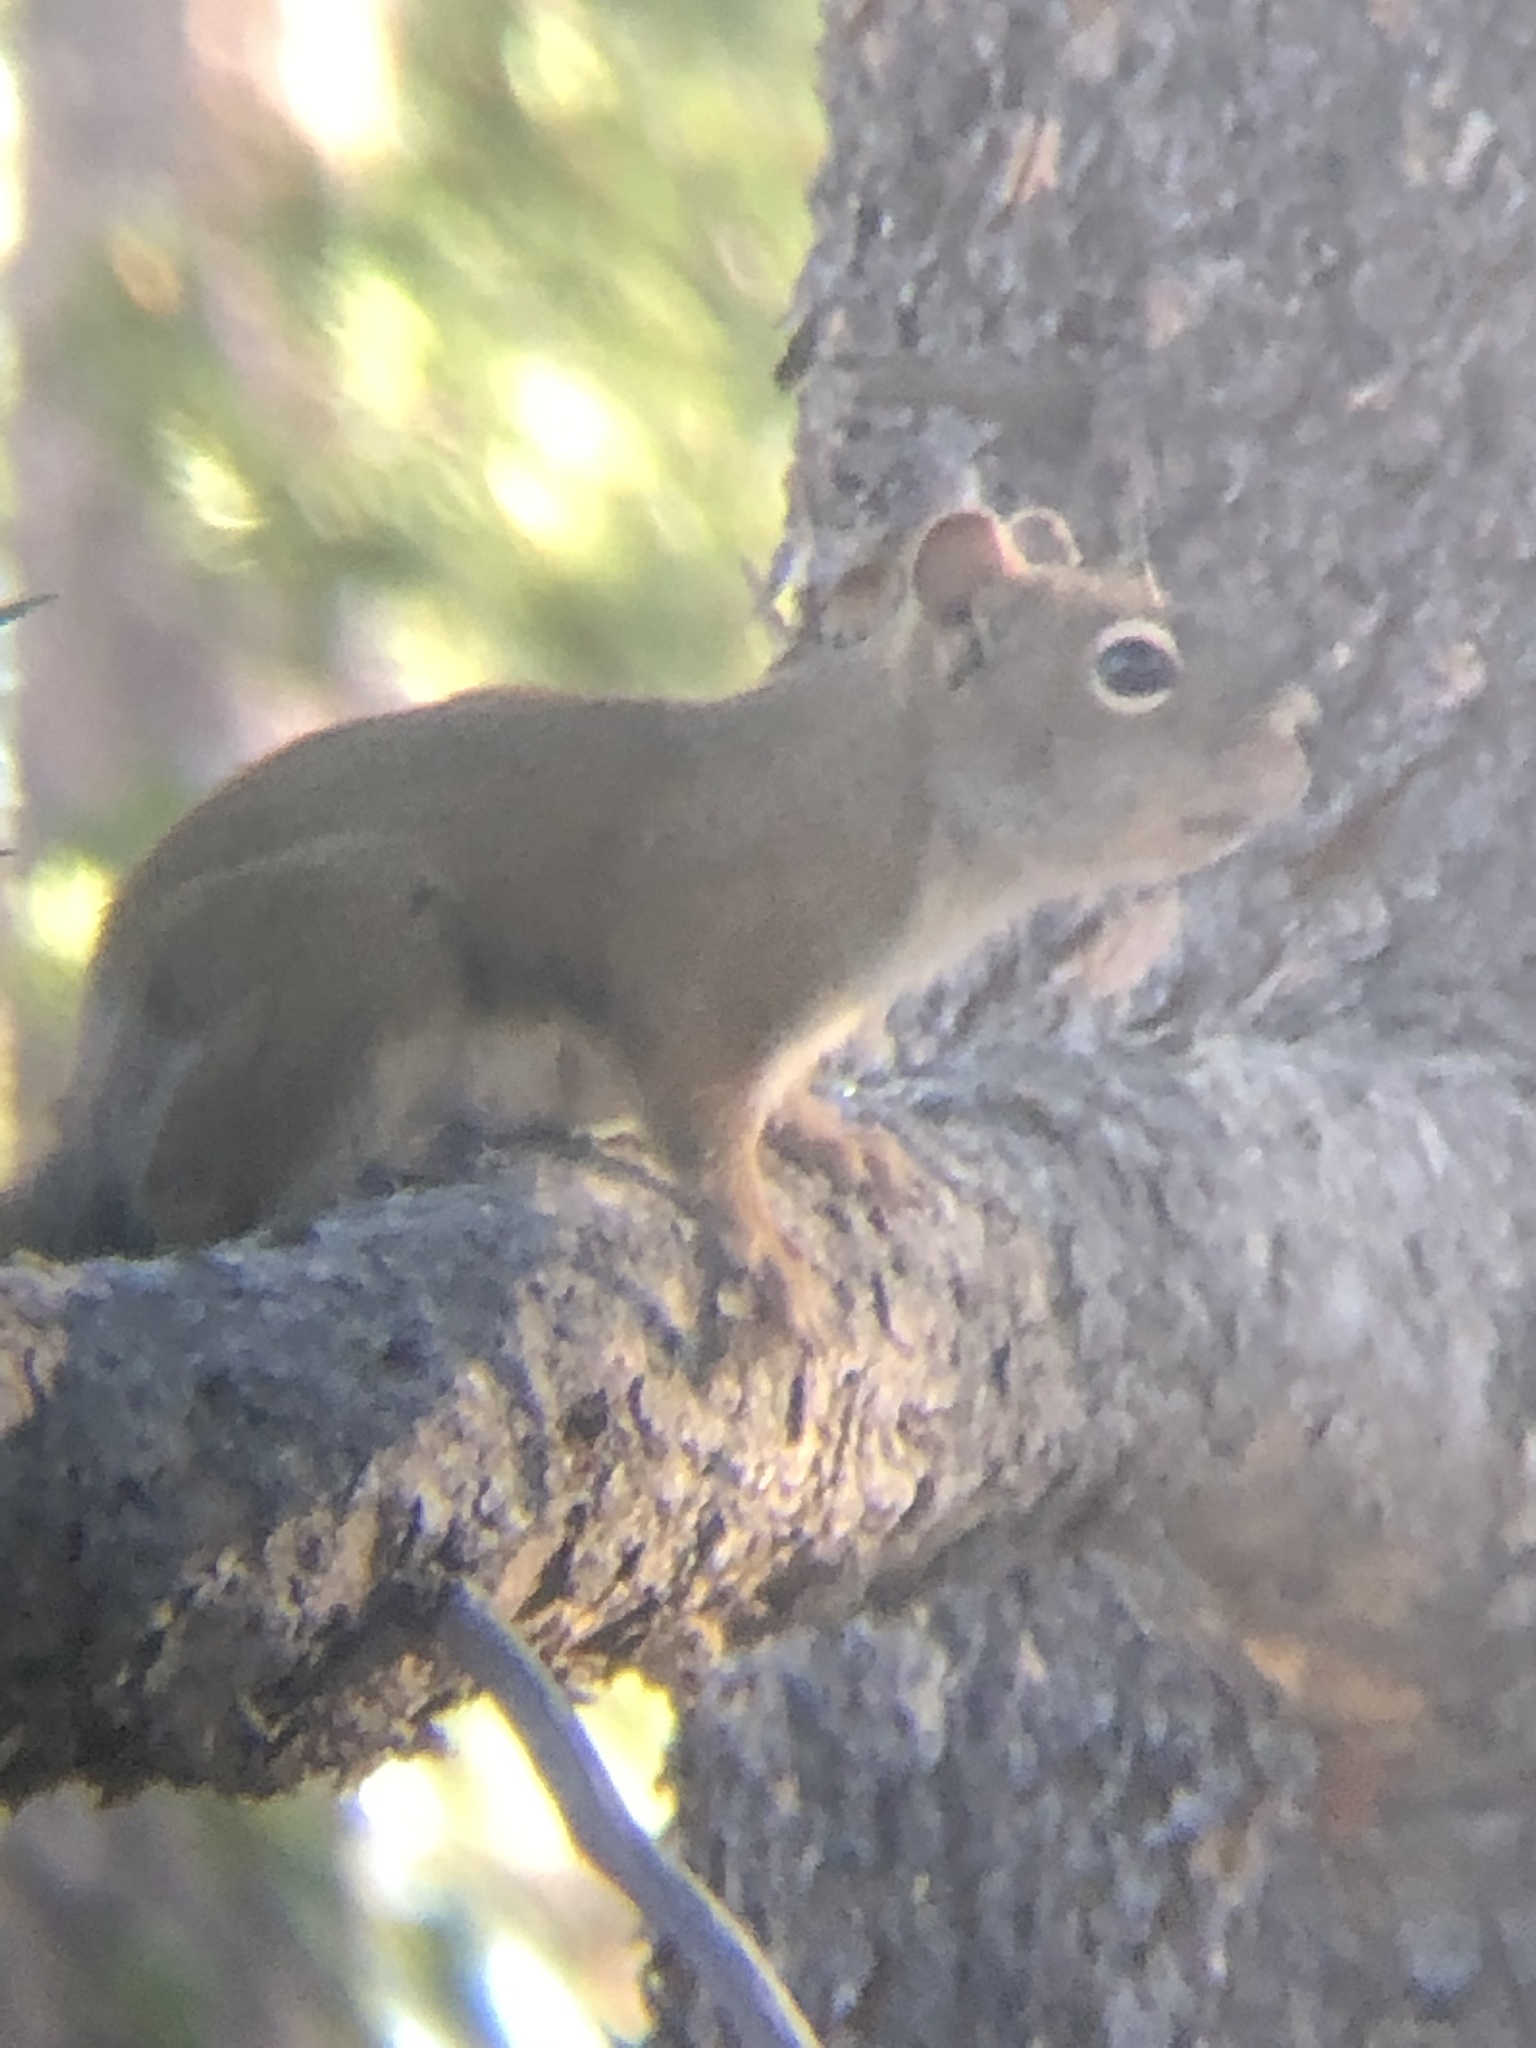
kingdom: Animalia
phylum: Chordata
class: Mammalia
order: Rodentia
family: Sciuridae
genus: Tamiasciurus
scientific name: Tamiasciurus hudsonicus
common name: Red squirrel
